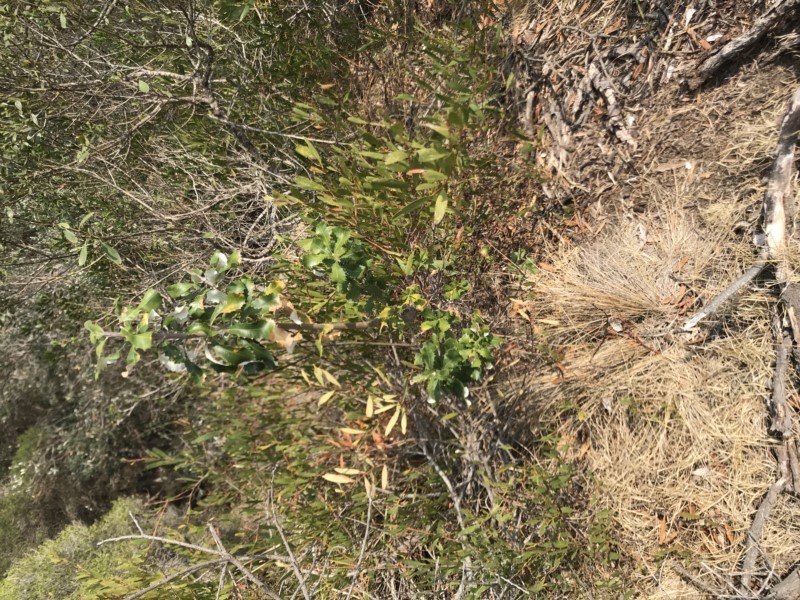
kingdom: Plantae
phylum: Tracheophyta
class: Magnoliopsida
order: Proteales
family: Proteaceae
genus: Banksia
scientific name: Banksia integrifolia
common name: White-honeysuckle
